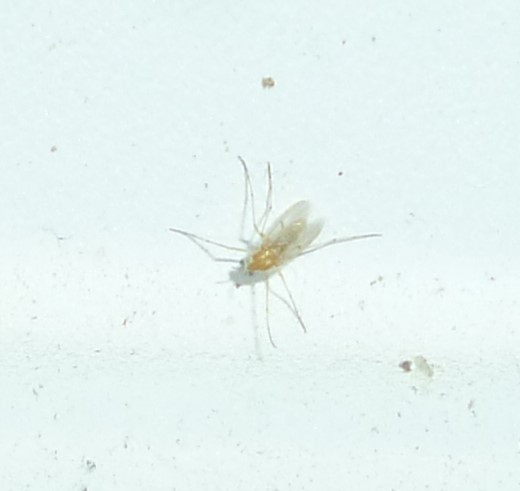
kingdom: Animalia
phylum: Arthropoda
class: Insecta
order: Diptera
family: Chironomidae
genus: Procladius
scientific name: Procladius bellus
